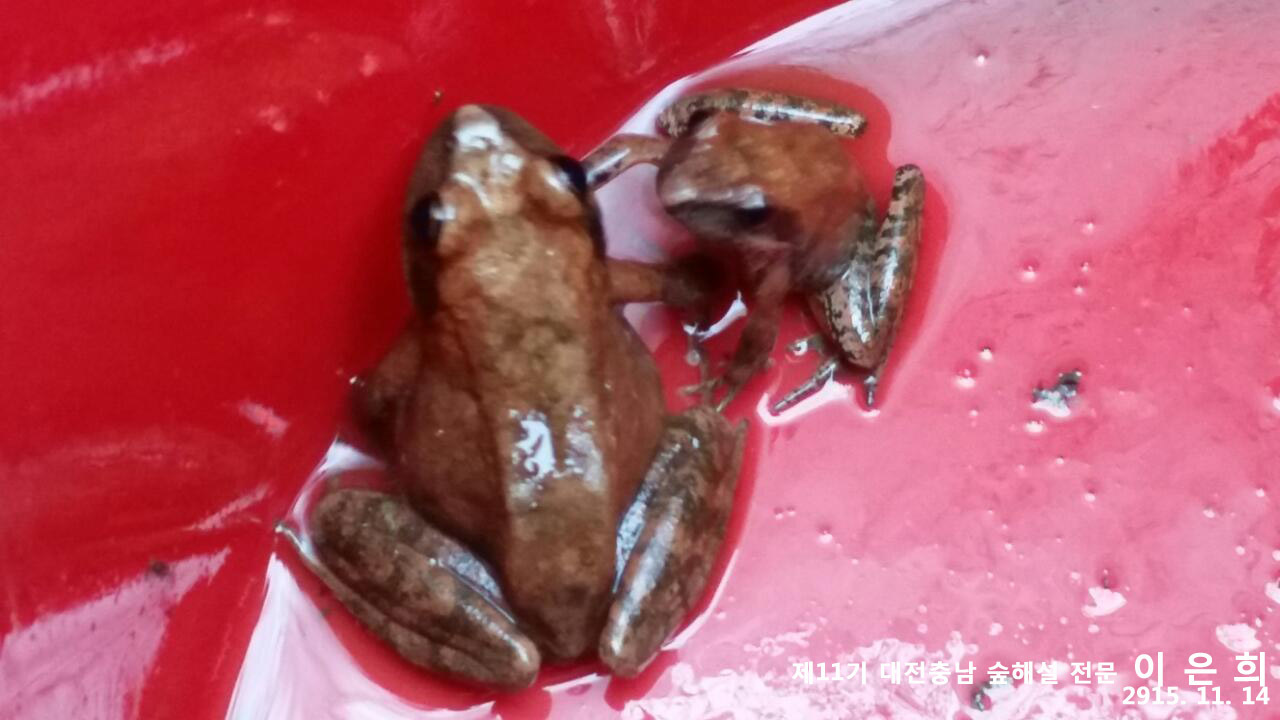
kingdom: Animalia
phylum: Chordata
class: Amphibia
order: Anura
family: Ranidae
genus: Rana
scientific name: Rana huanrenensis
